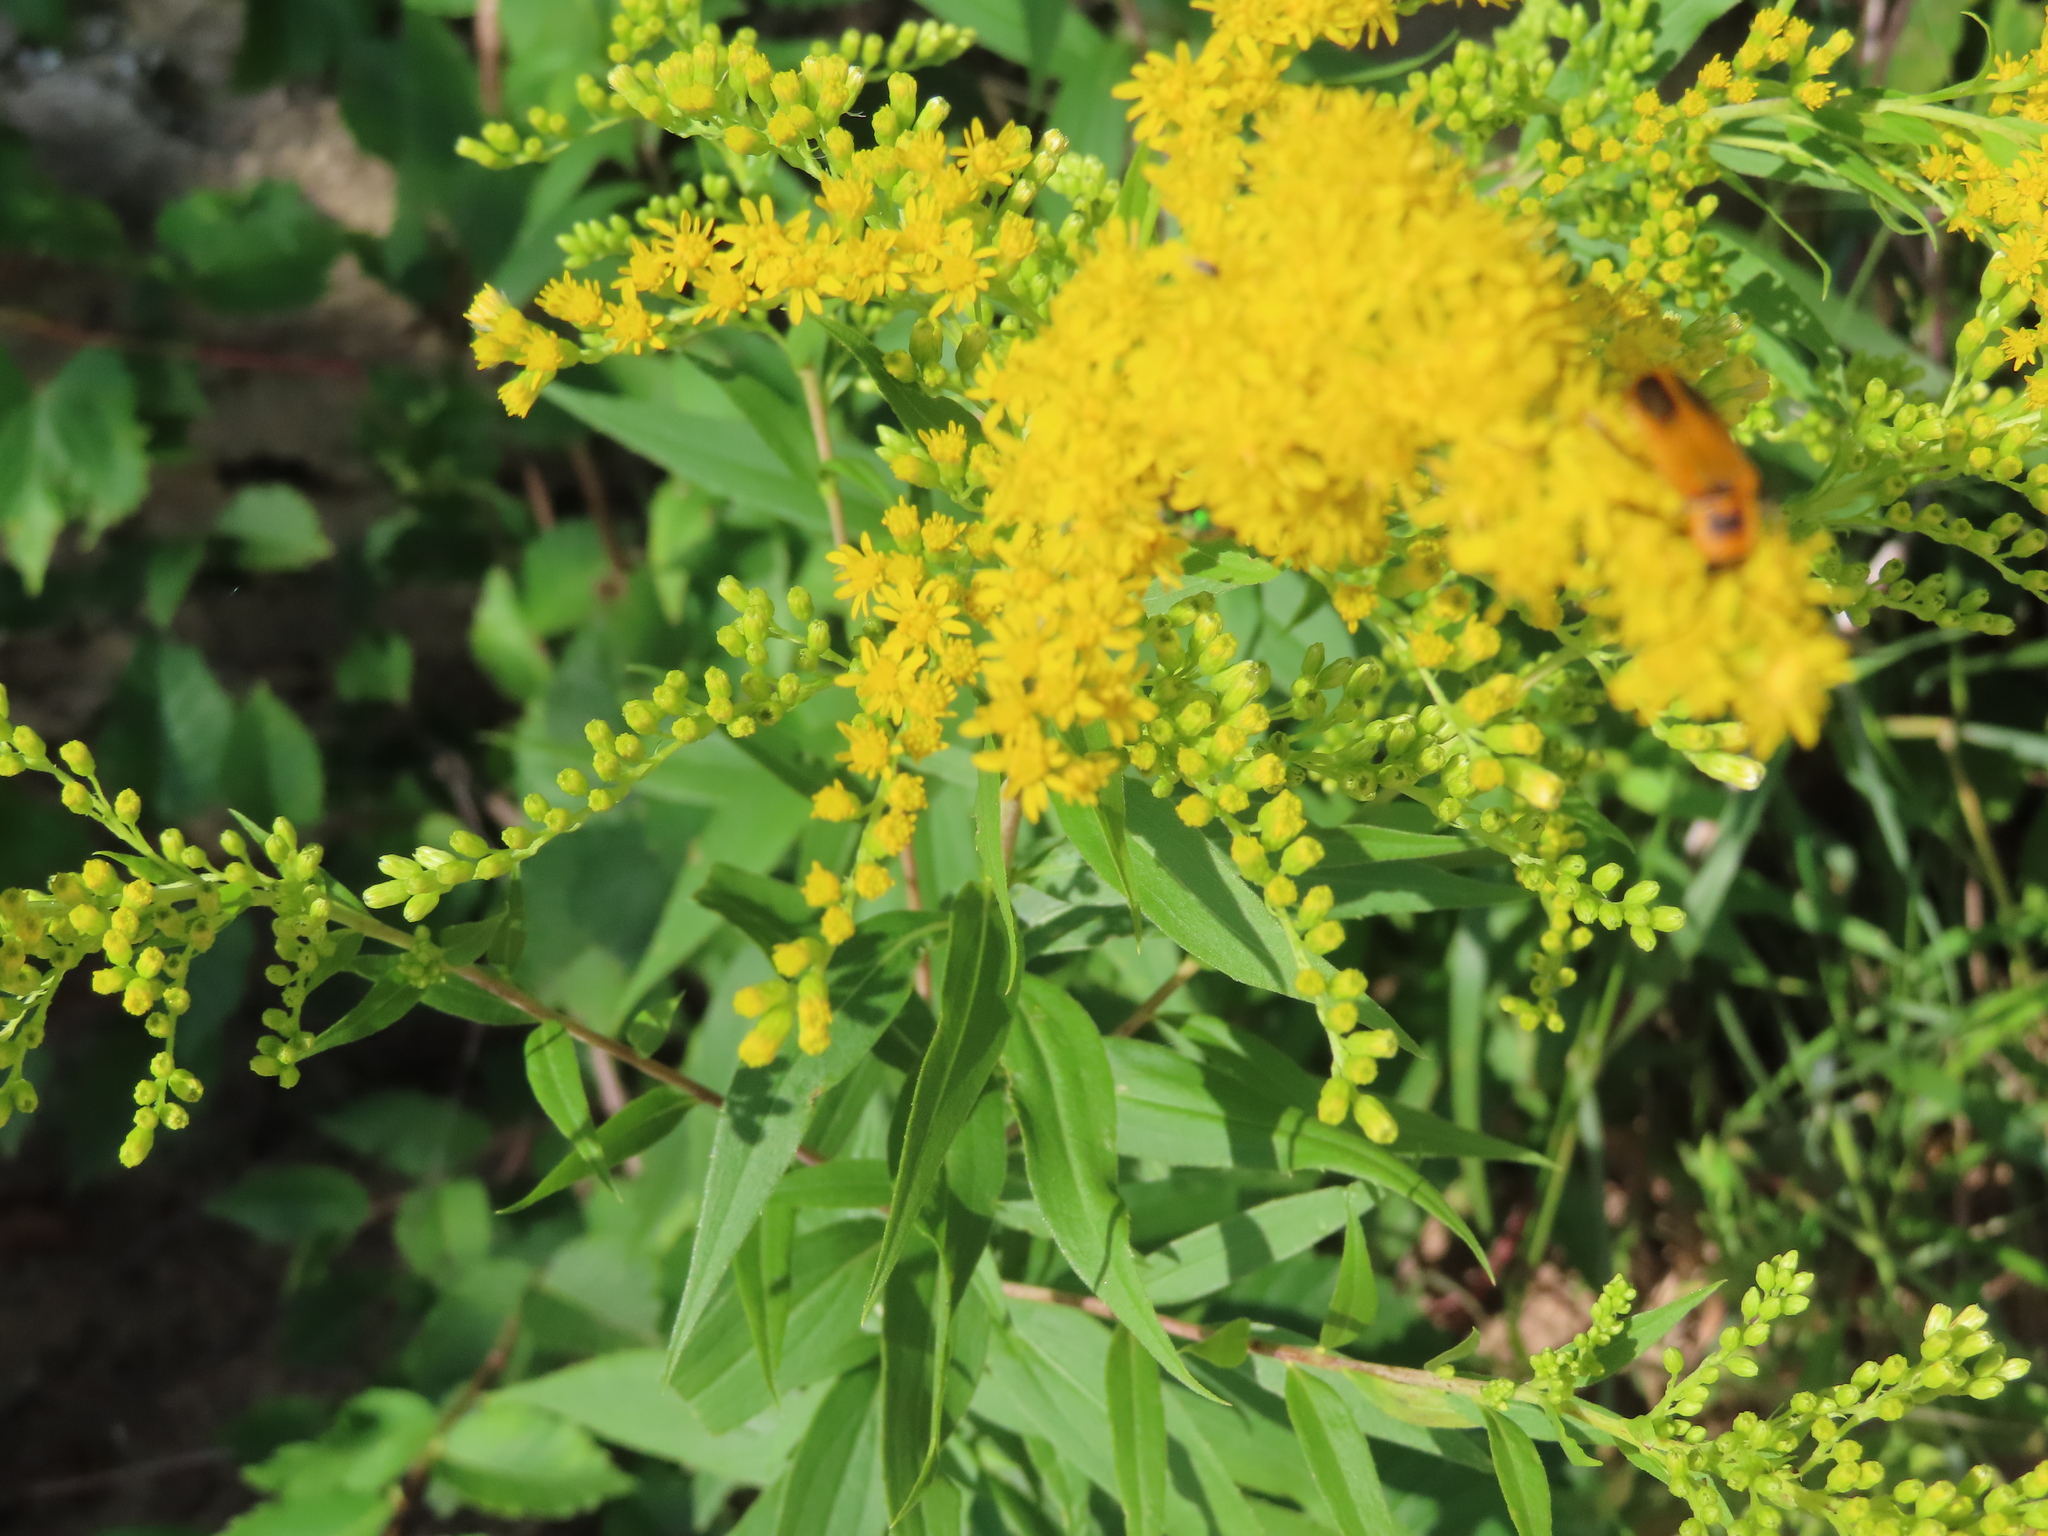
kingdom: Animalia
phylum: Arthropoda
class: Insecta
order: Coleoptera
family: Cantharidae
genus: Chauliognathus
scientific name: Chauliognathus pensylvanicus
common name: Goldenrod soldier beetle
